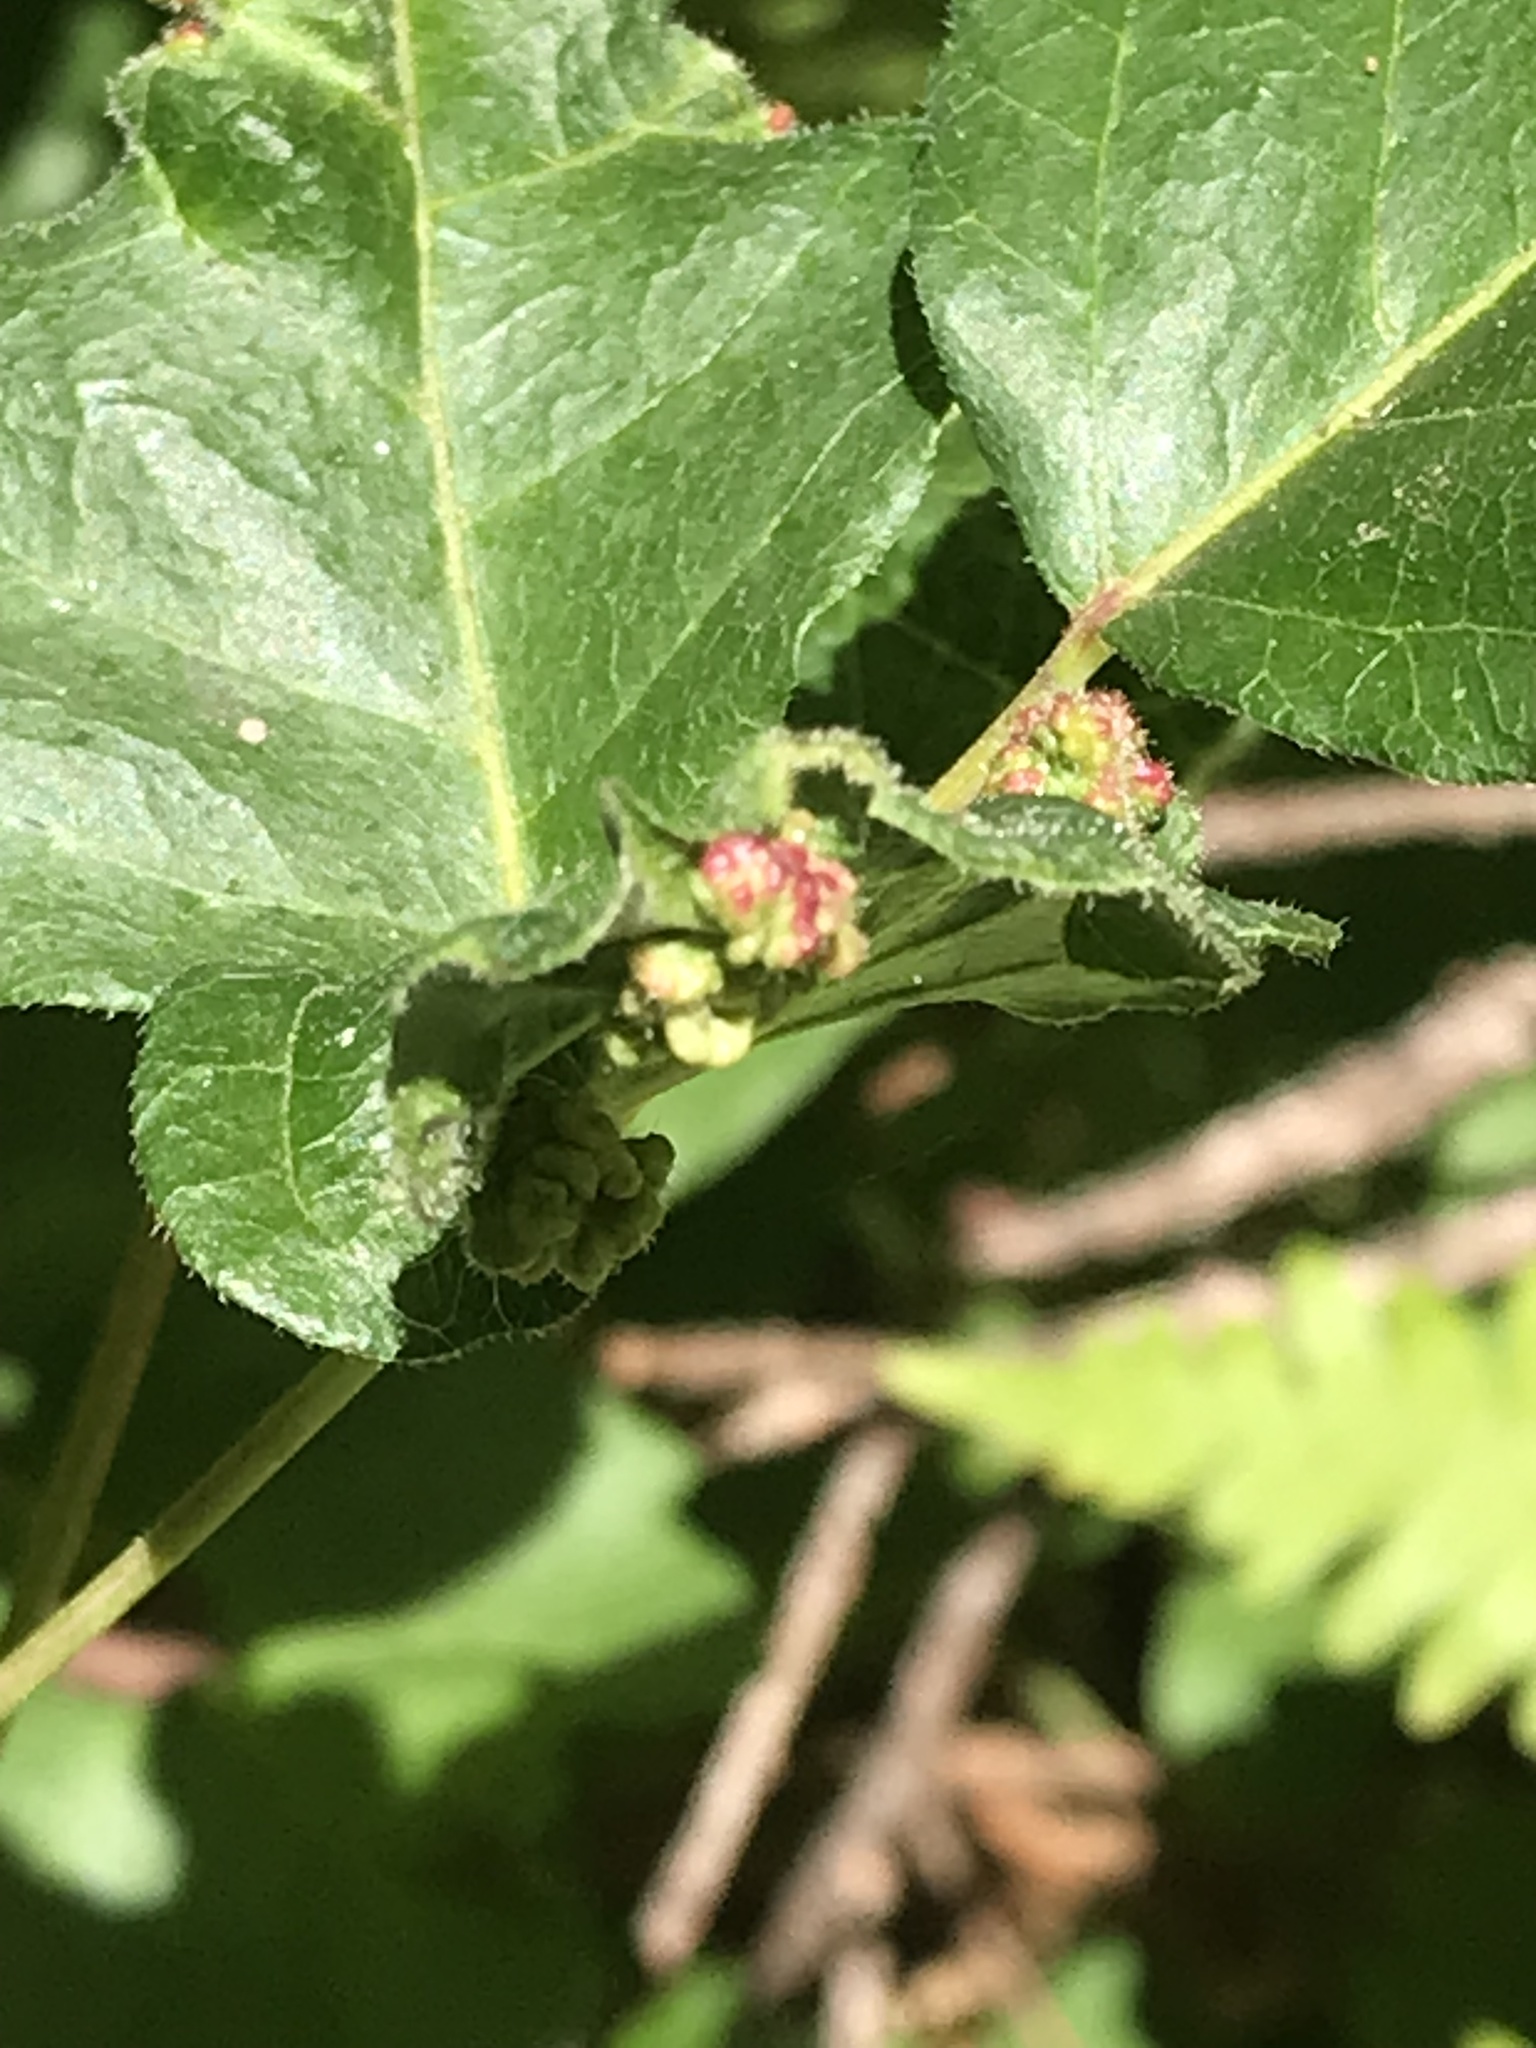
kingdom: Animalia
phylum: Arthropoda
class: Arachnida
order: Trombidiformes
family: Eriophyidae
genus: Aculops
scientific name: Aculops
